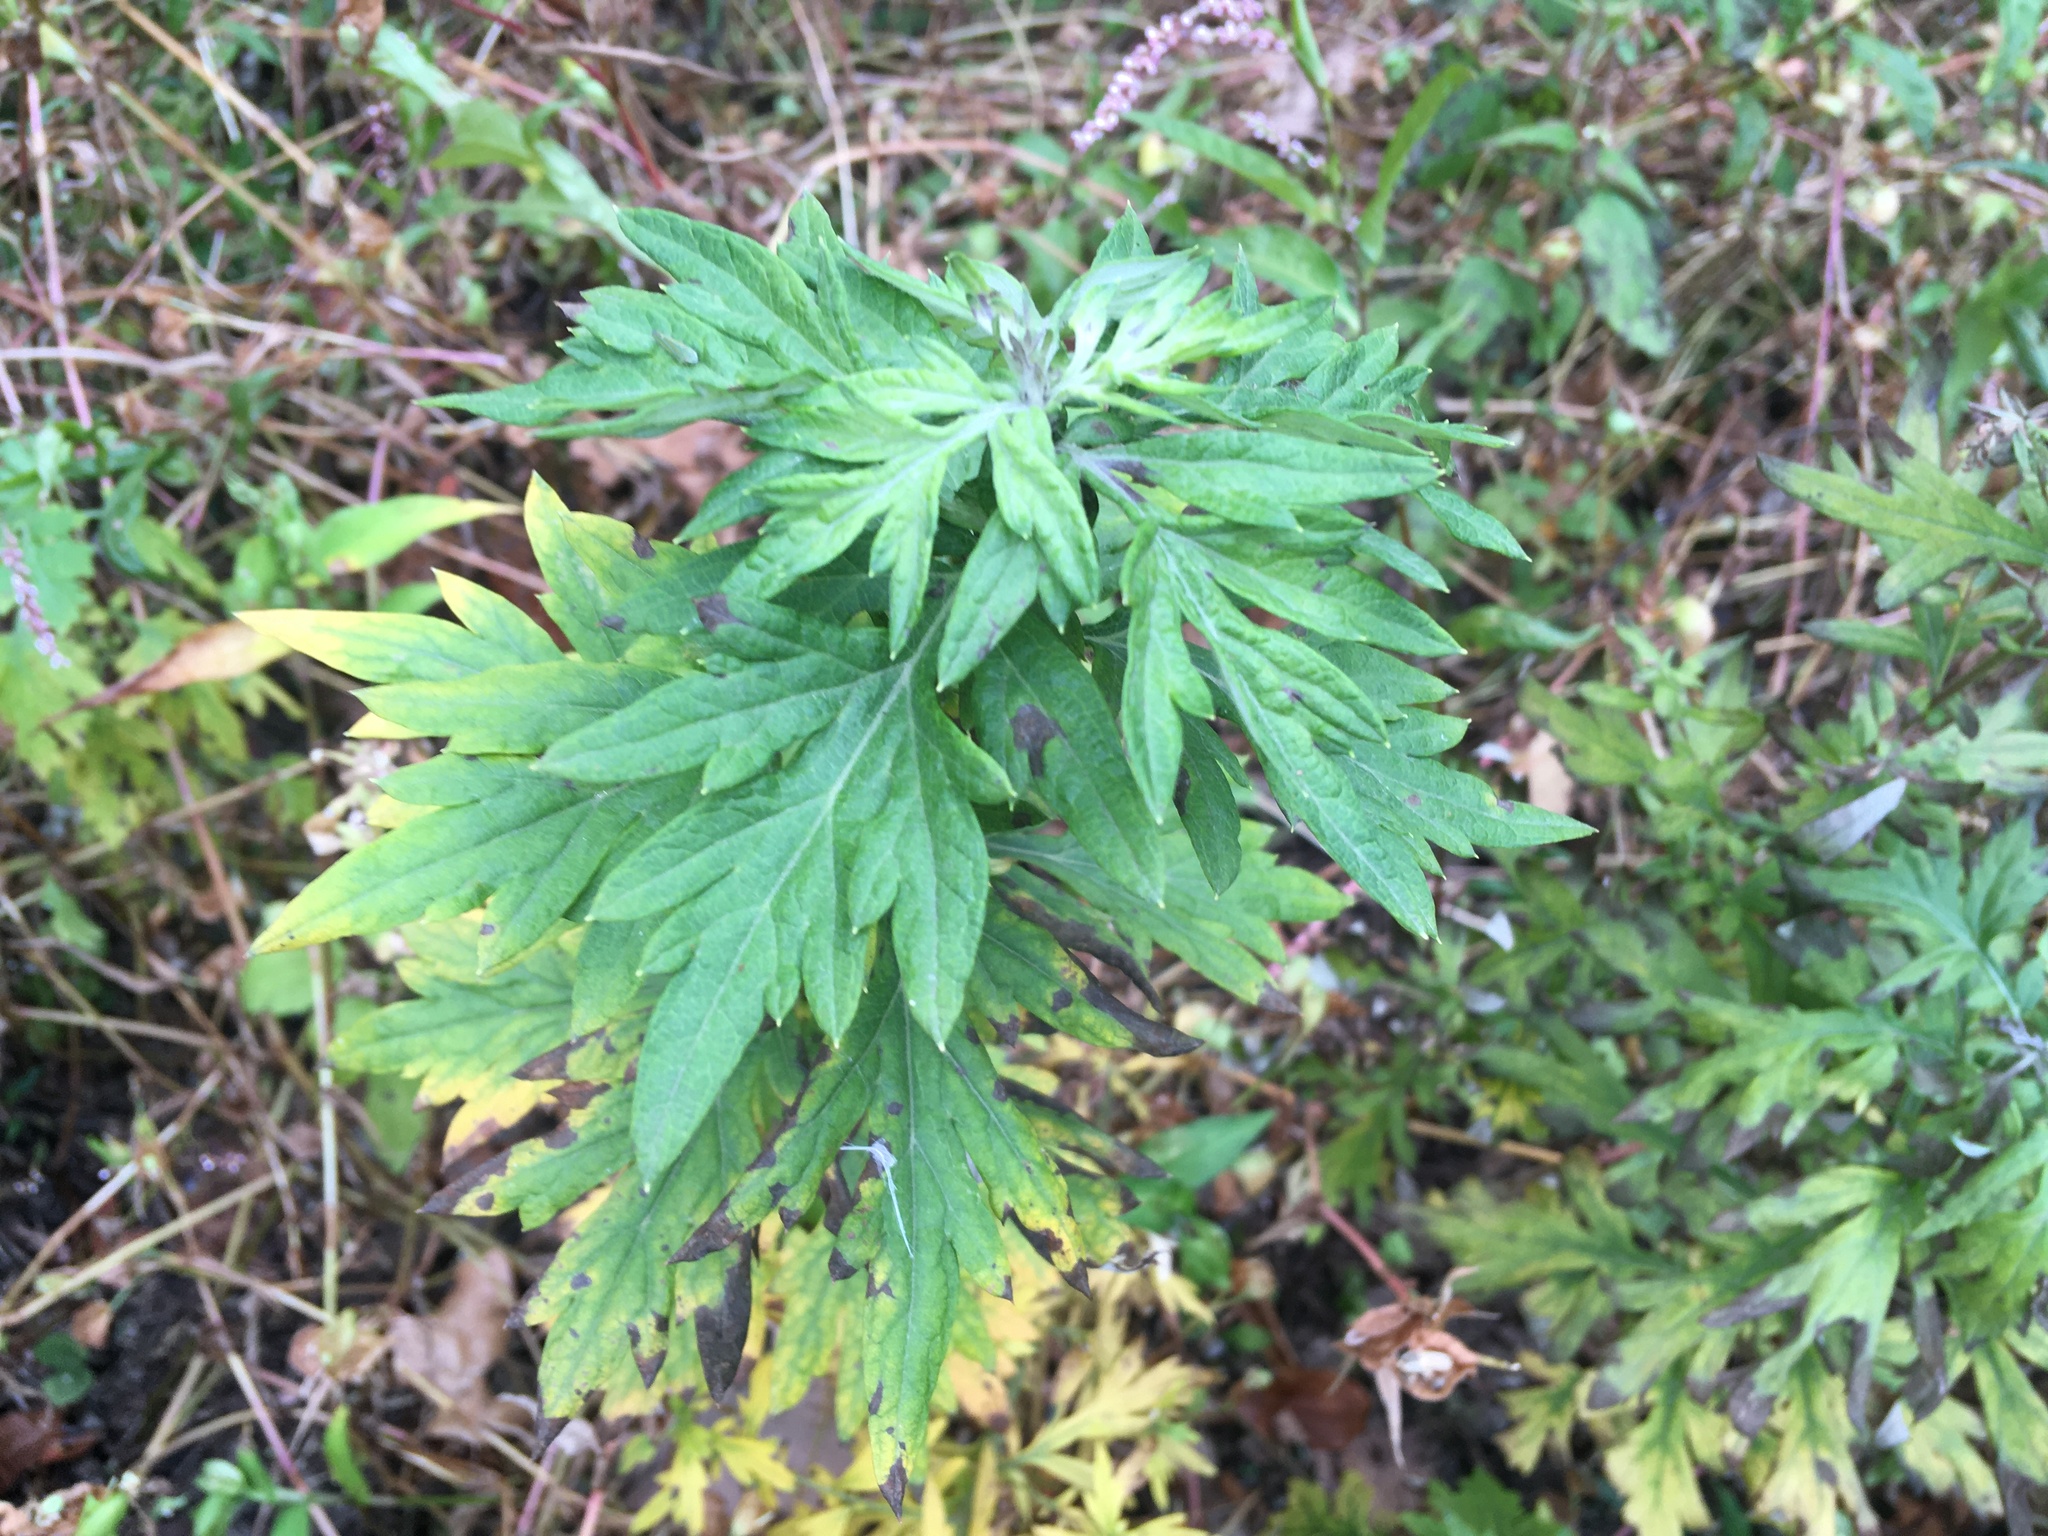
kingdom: Plantae
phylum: Tracheophyta
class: Magnoliopsida
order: Asterales
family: Asteraceae
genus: Artemisia
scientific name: Artemisia vulgaris
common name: Mugwort
